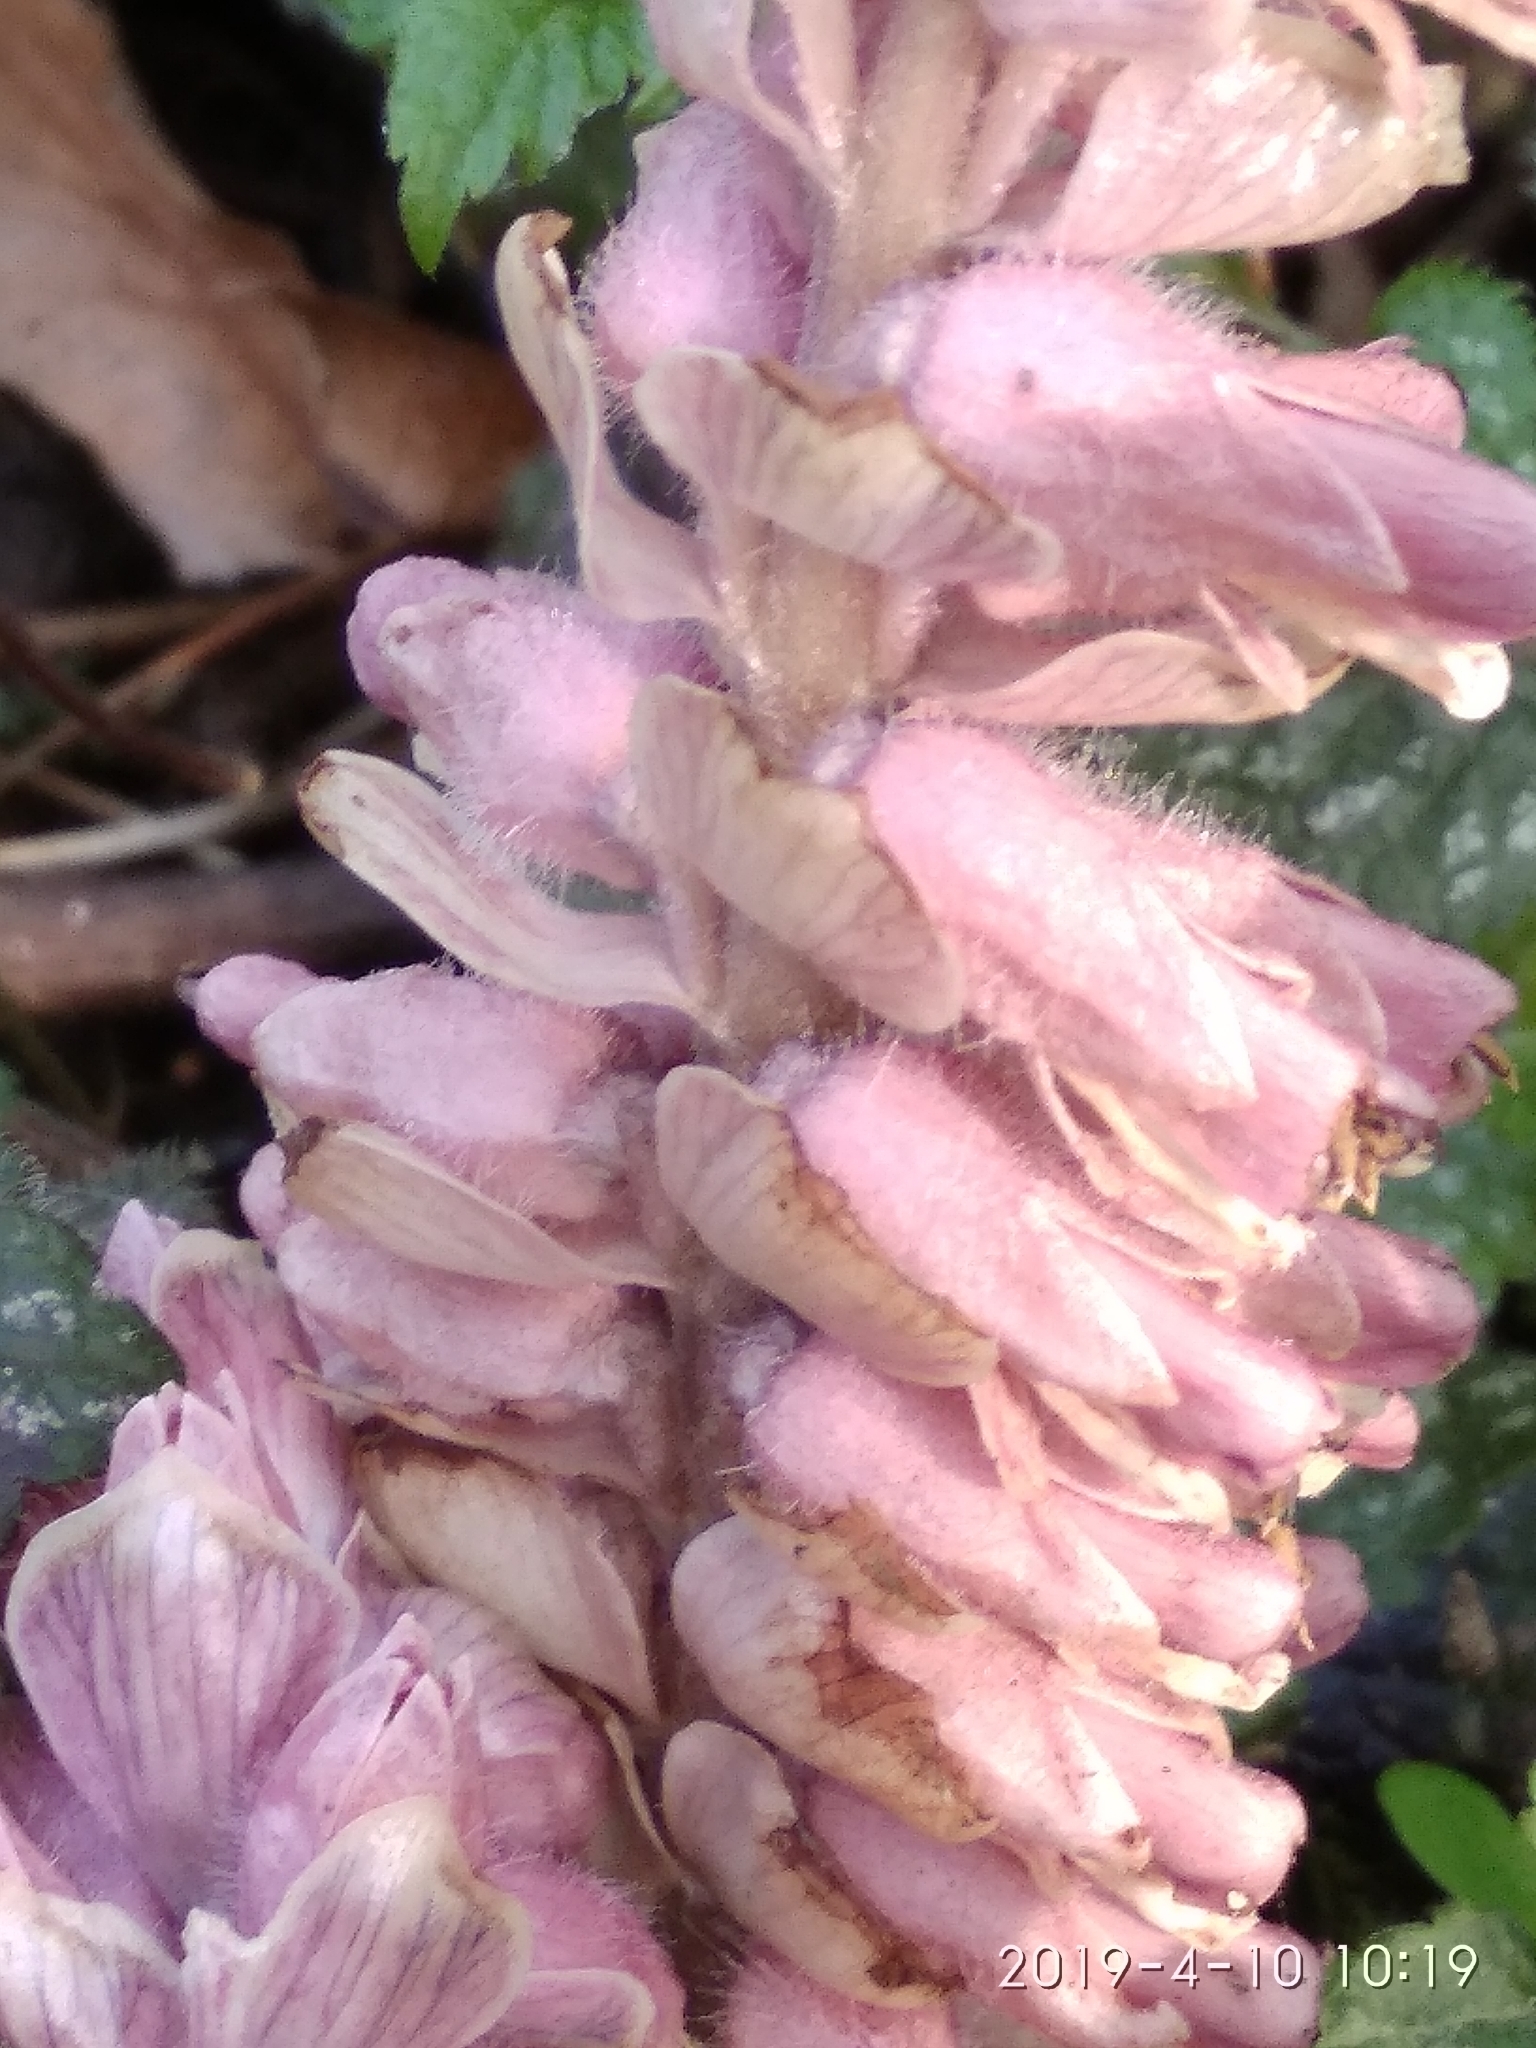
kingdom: Plantae
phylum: Tracheophyta
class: Magnoliopsida
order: Lamiales
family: Orobanchaceae
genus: Lathraea
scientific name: Lathraea squamaria
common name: Toothwort
